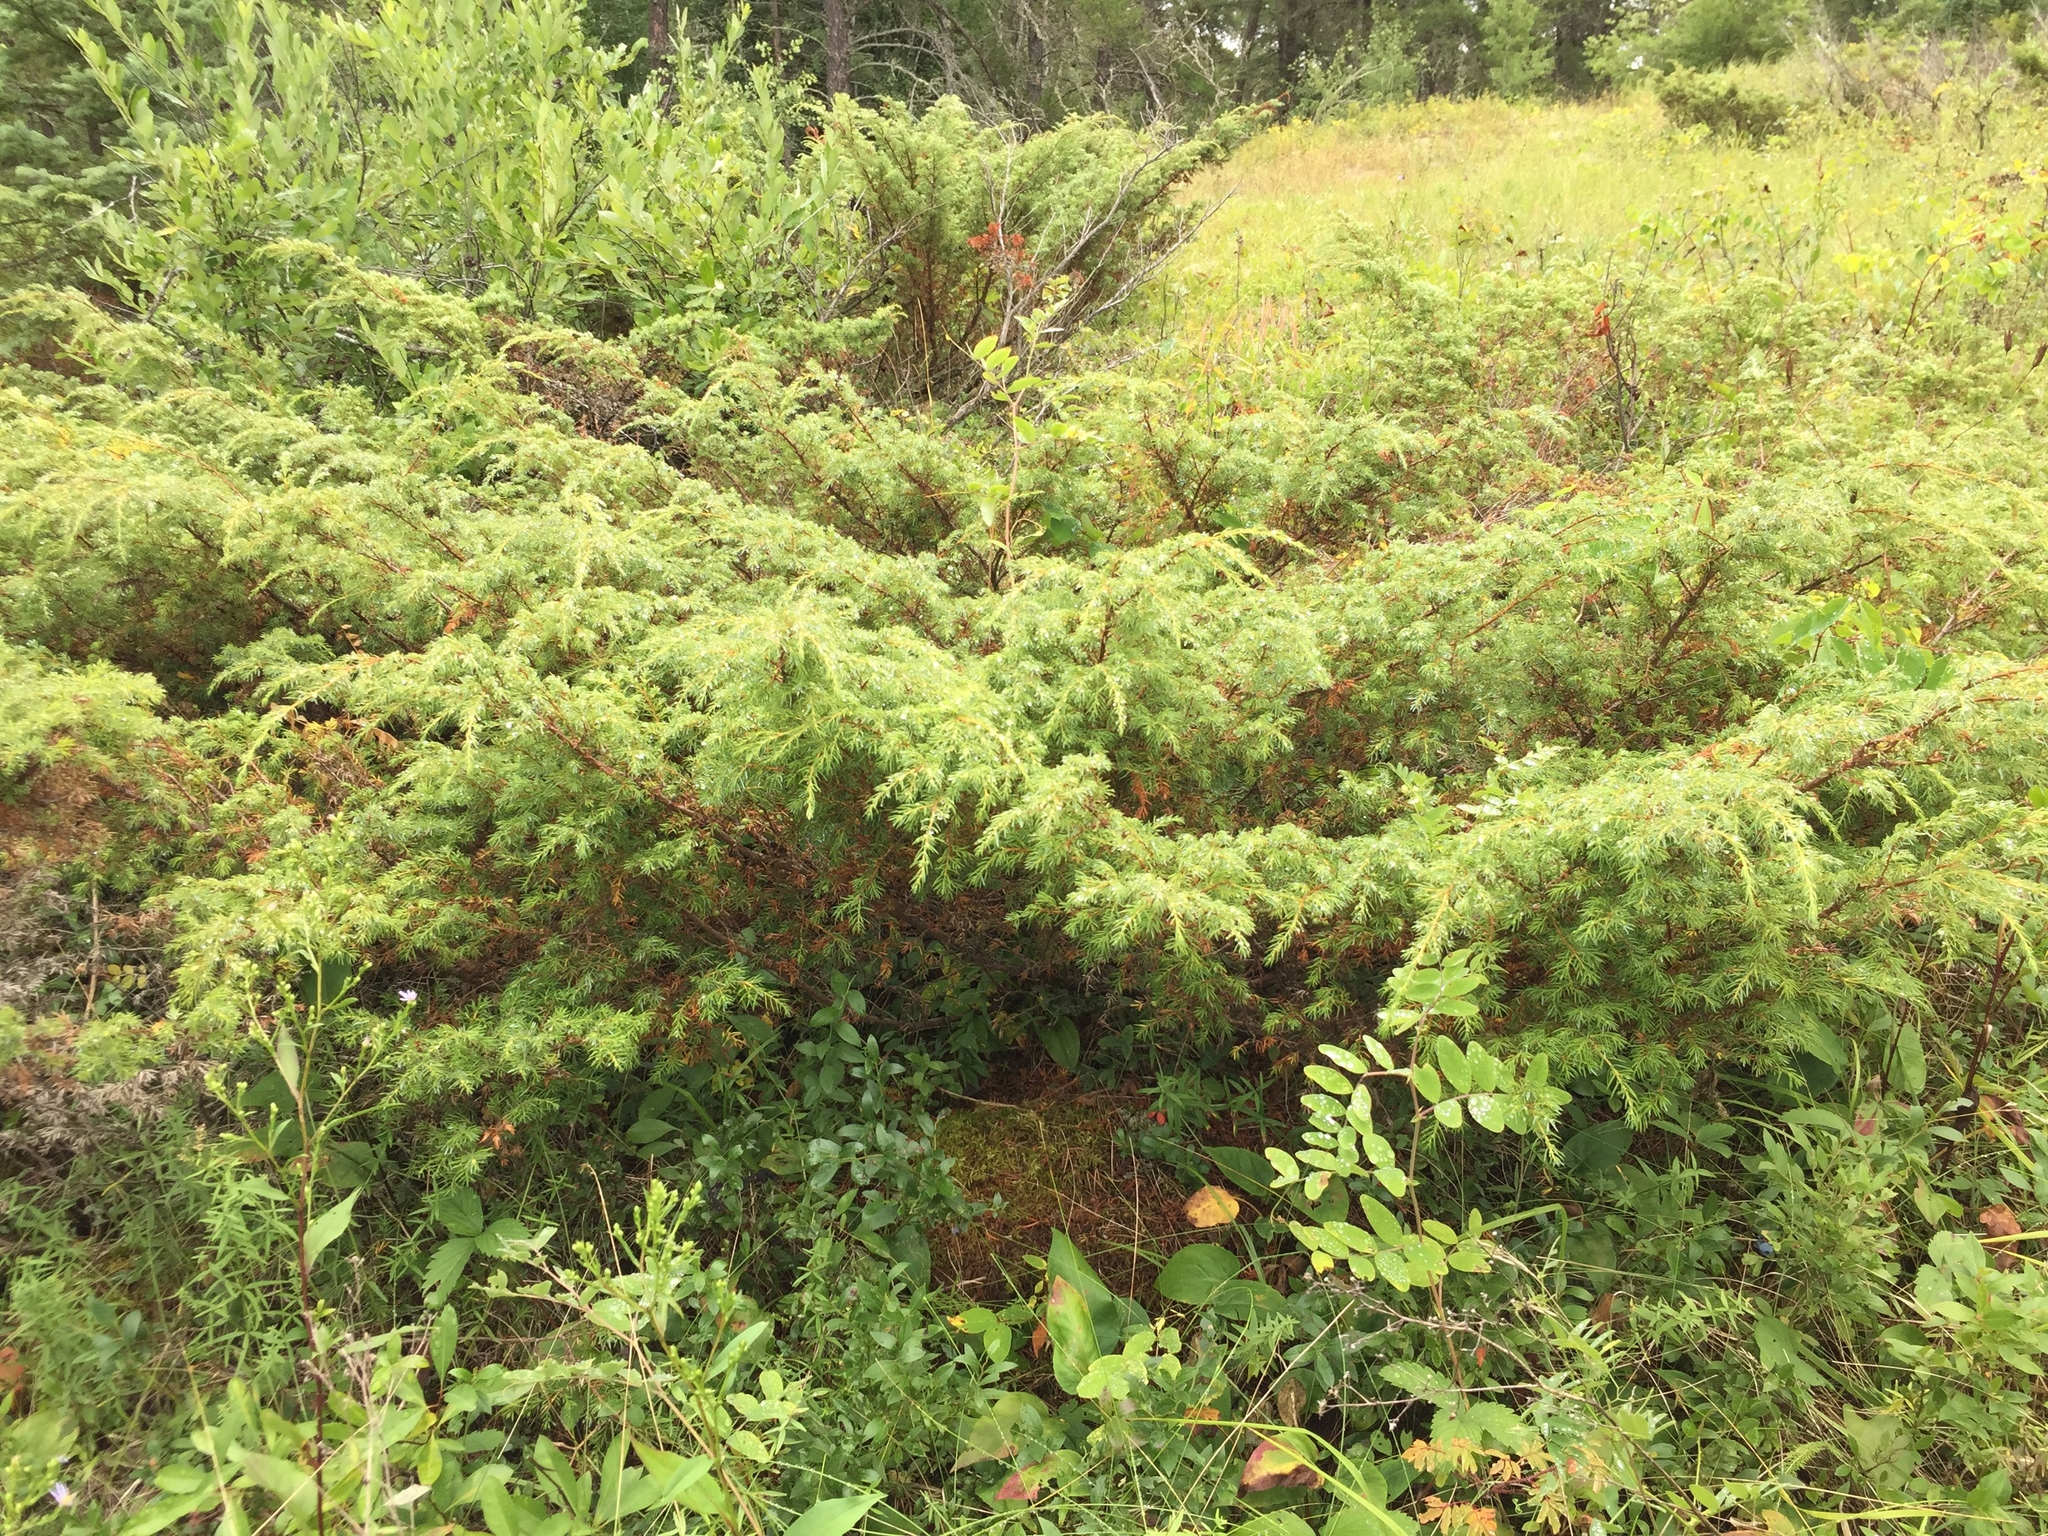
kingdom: Plantae
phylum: Tracheophyta
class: Pinopsida
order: Pinales
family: Cupressaceae
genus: Juniperus
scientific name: Juniperus communis
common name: Common juniper
